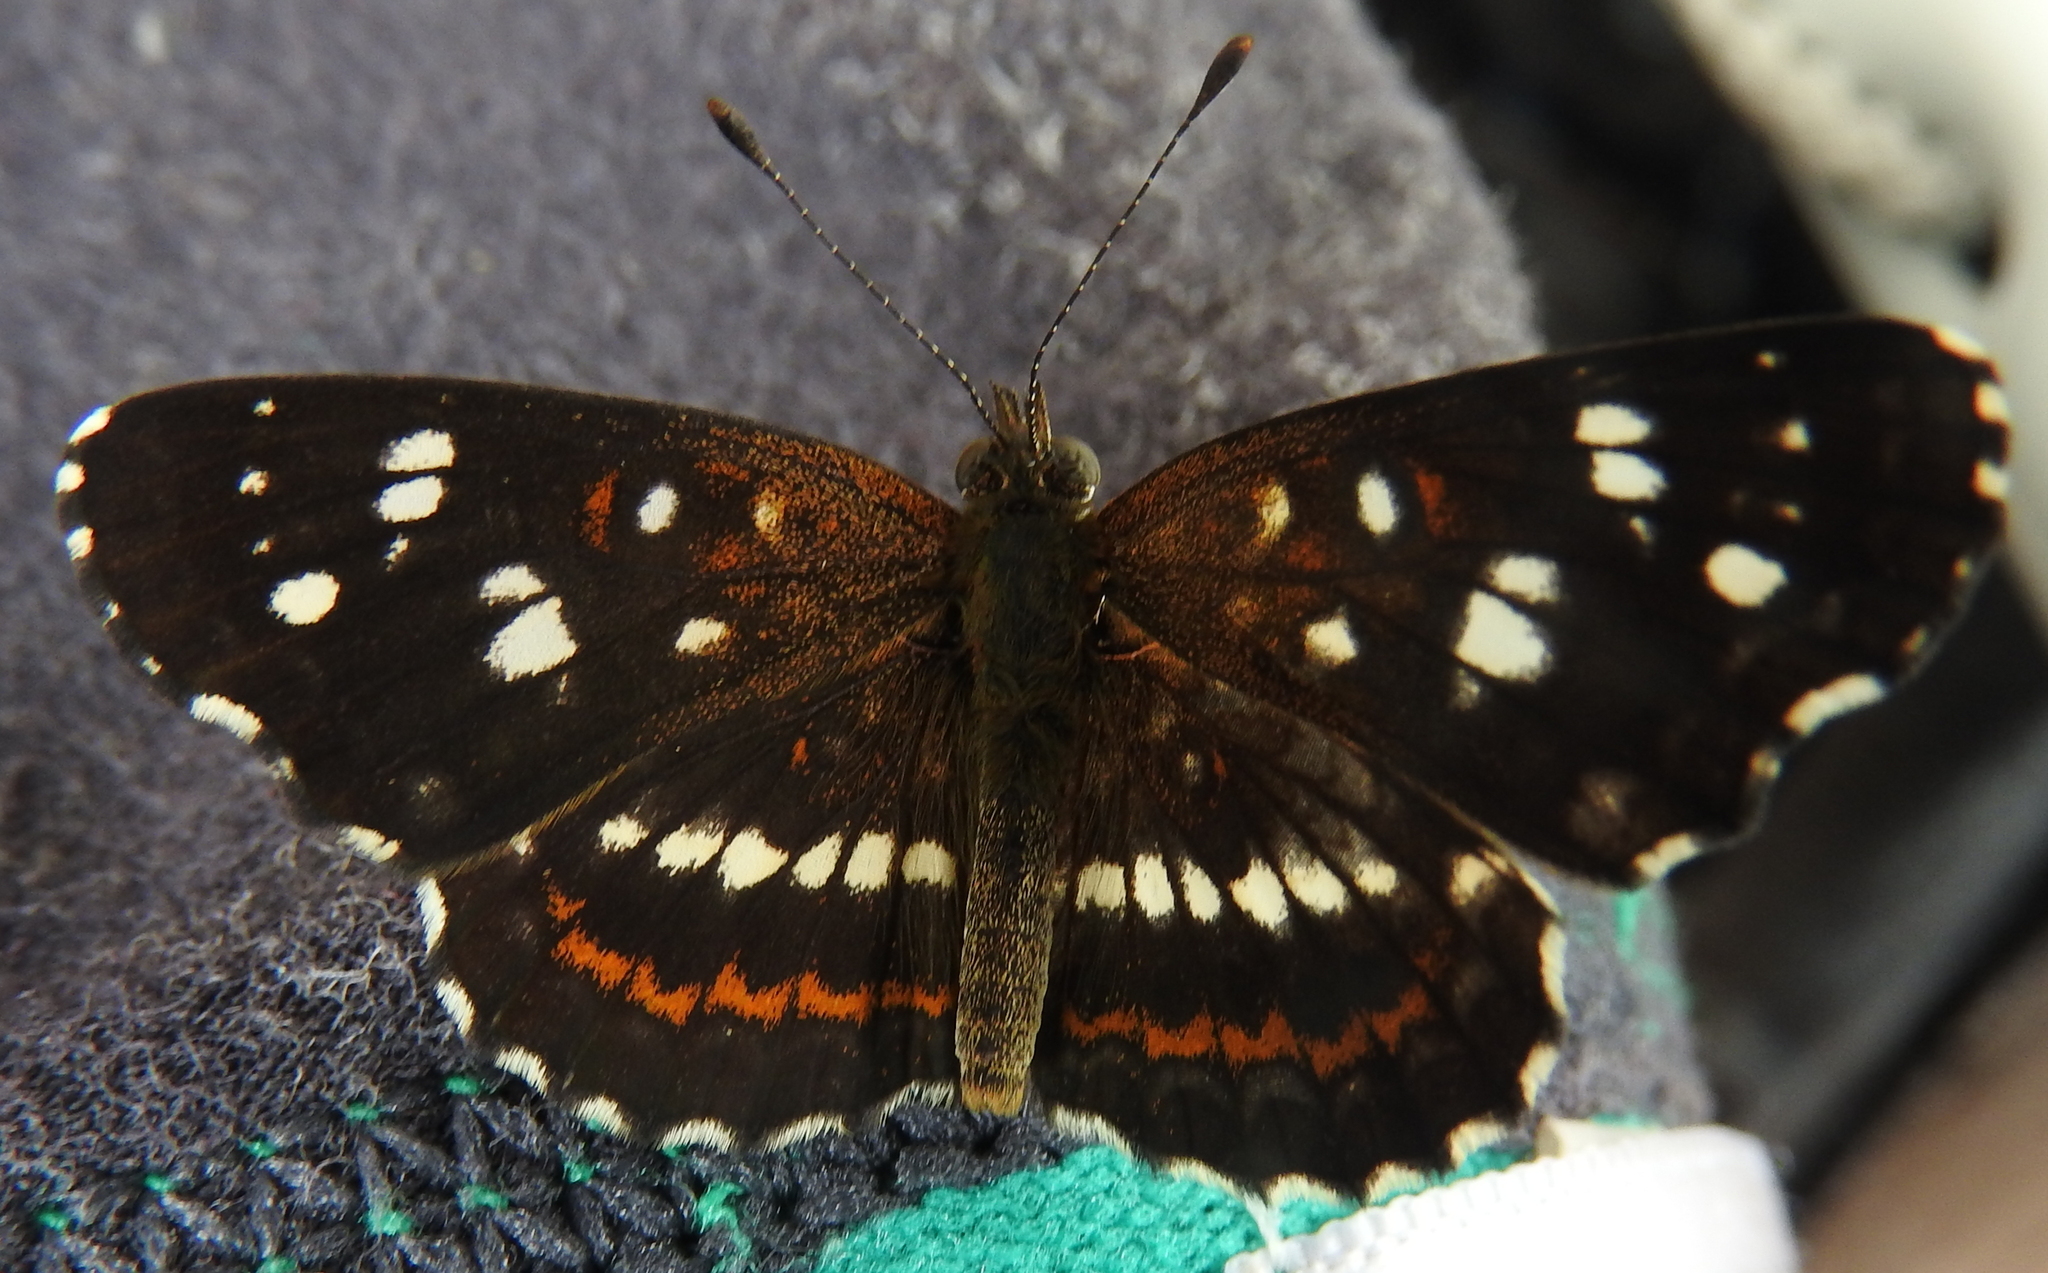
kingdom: Animalia
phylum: Arthropoda
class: Insecta
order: Lepidoptera
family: Nymphalidae
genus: Ortilia
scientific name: Ortilia ithra
